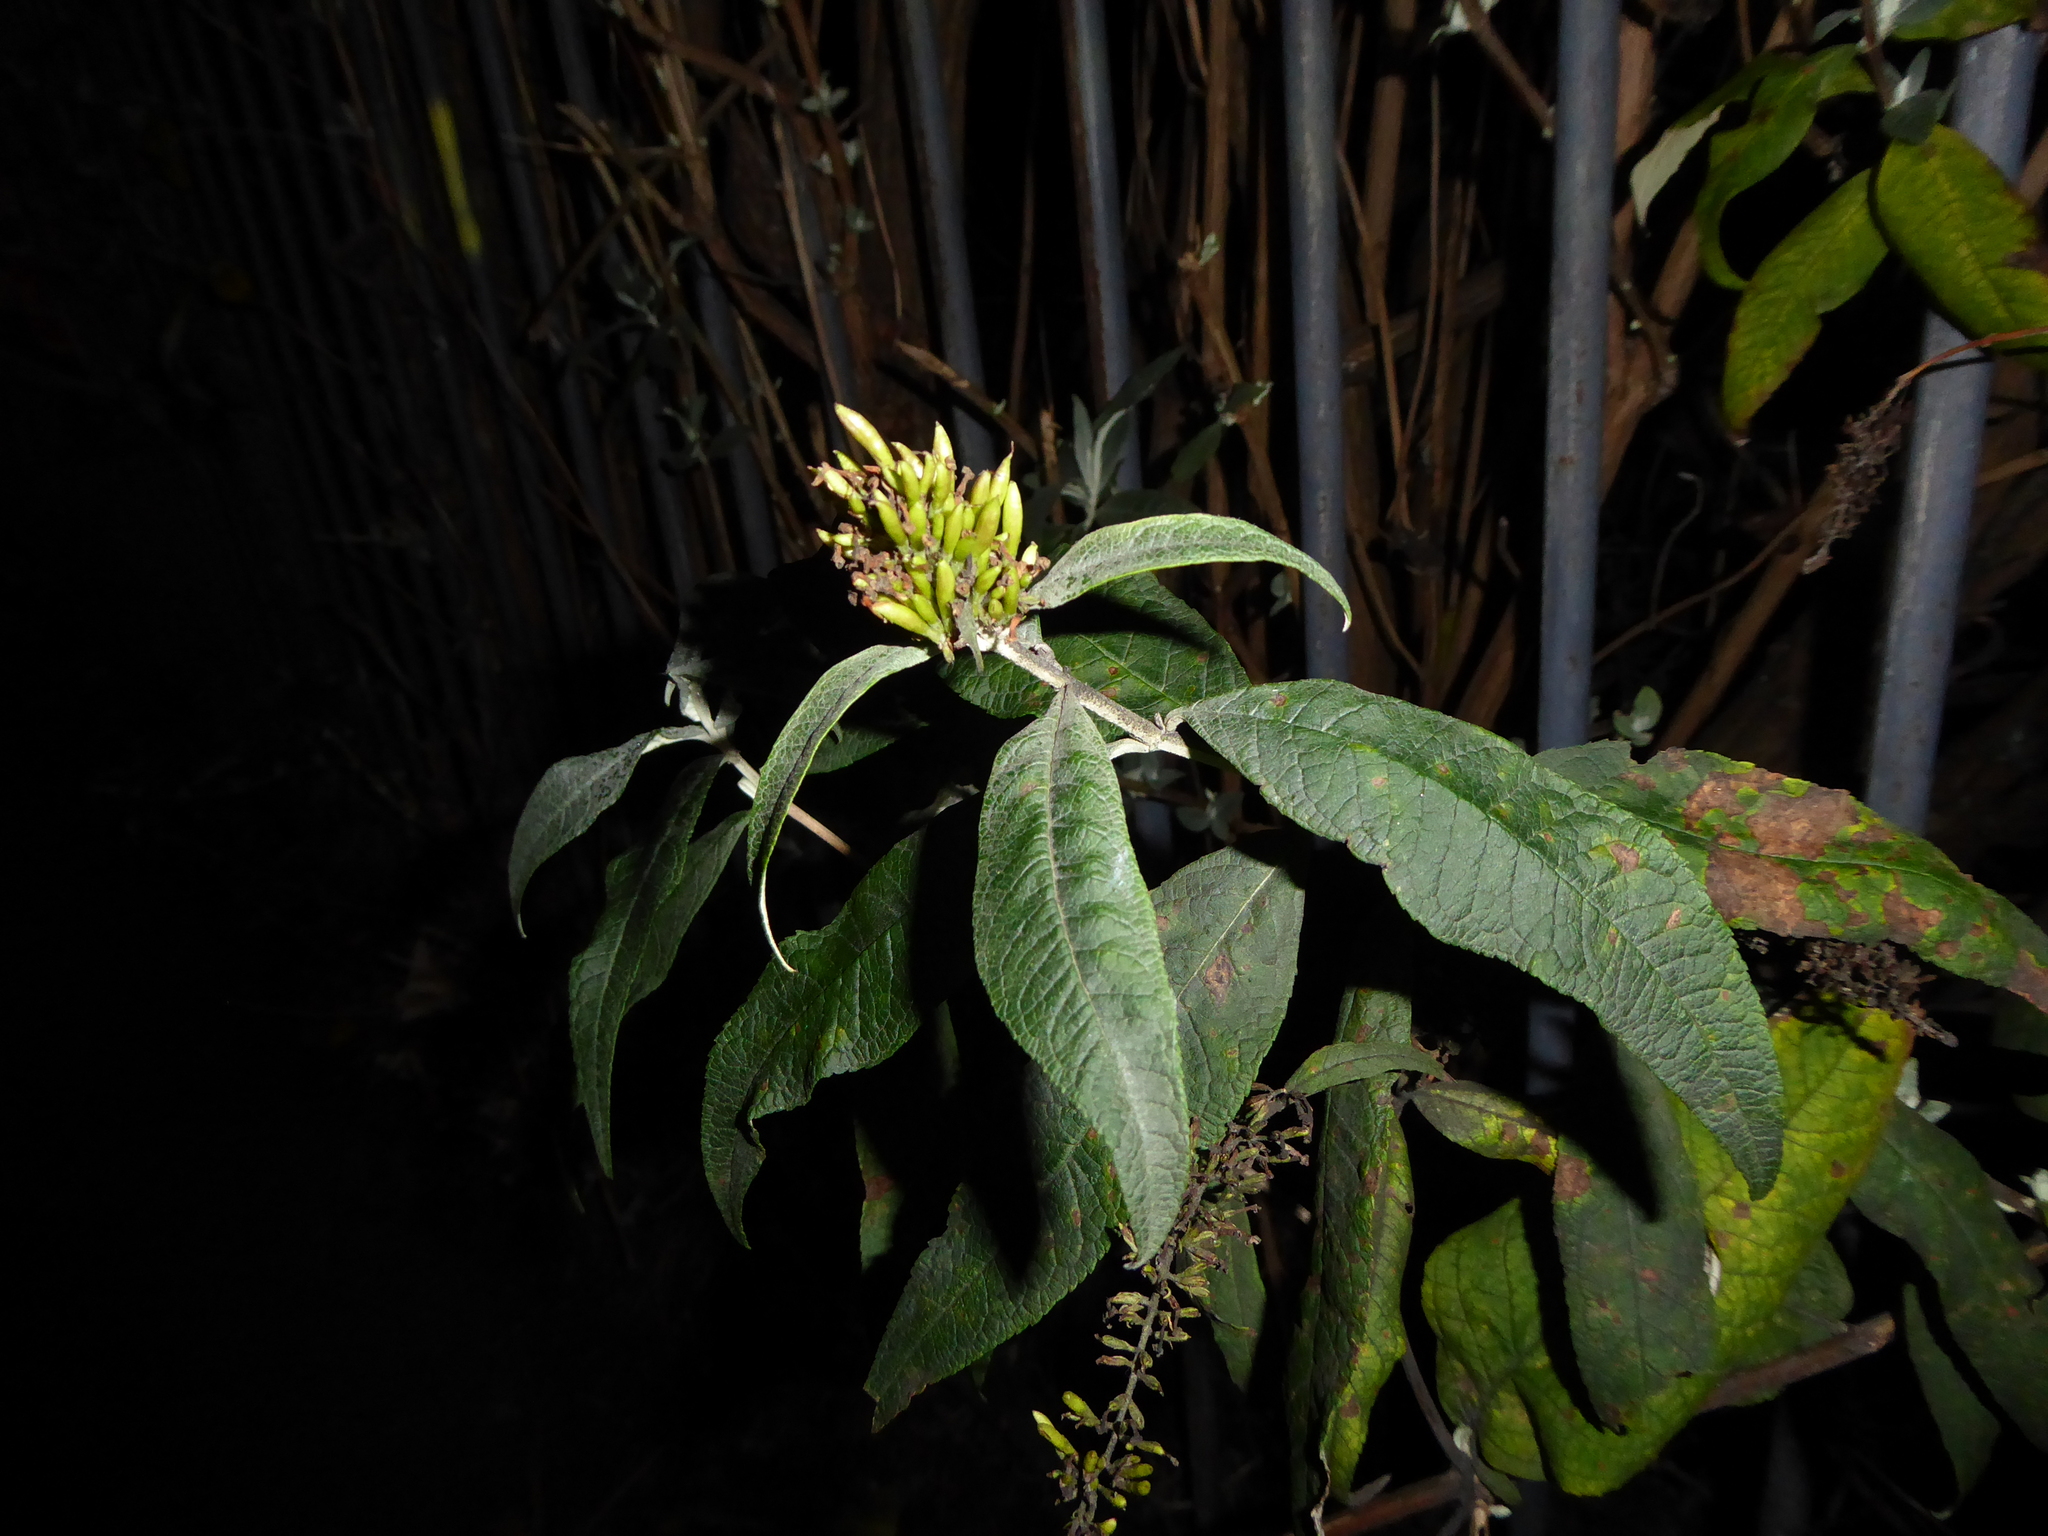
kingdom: Plantae
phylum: Tracheophyta
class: Magnoliopsida
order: Lamiales
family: Scrophulariaceae
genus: Buddleja
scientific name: Buddleja davidii
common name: Butterfly-bush
